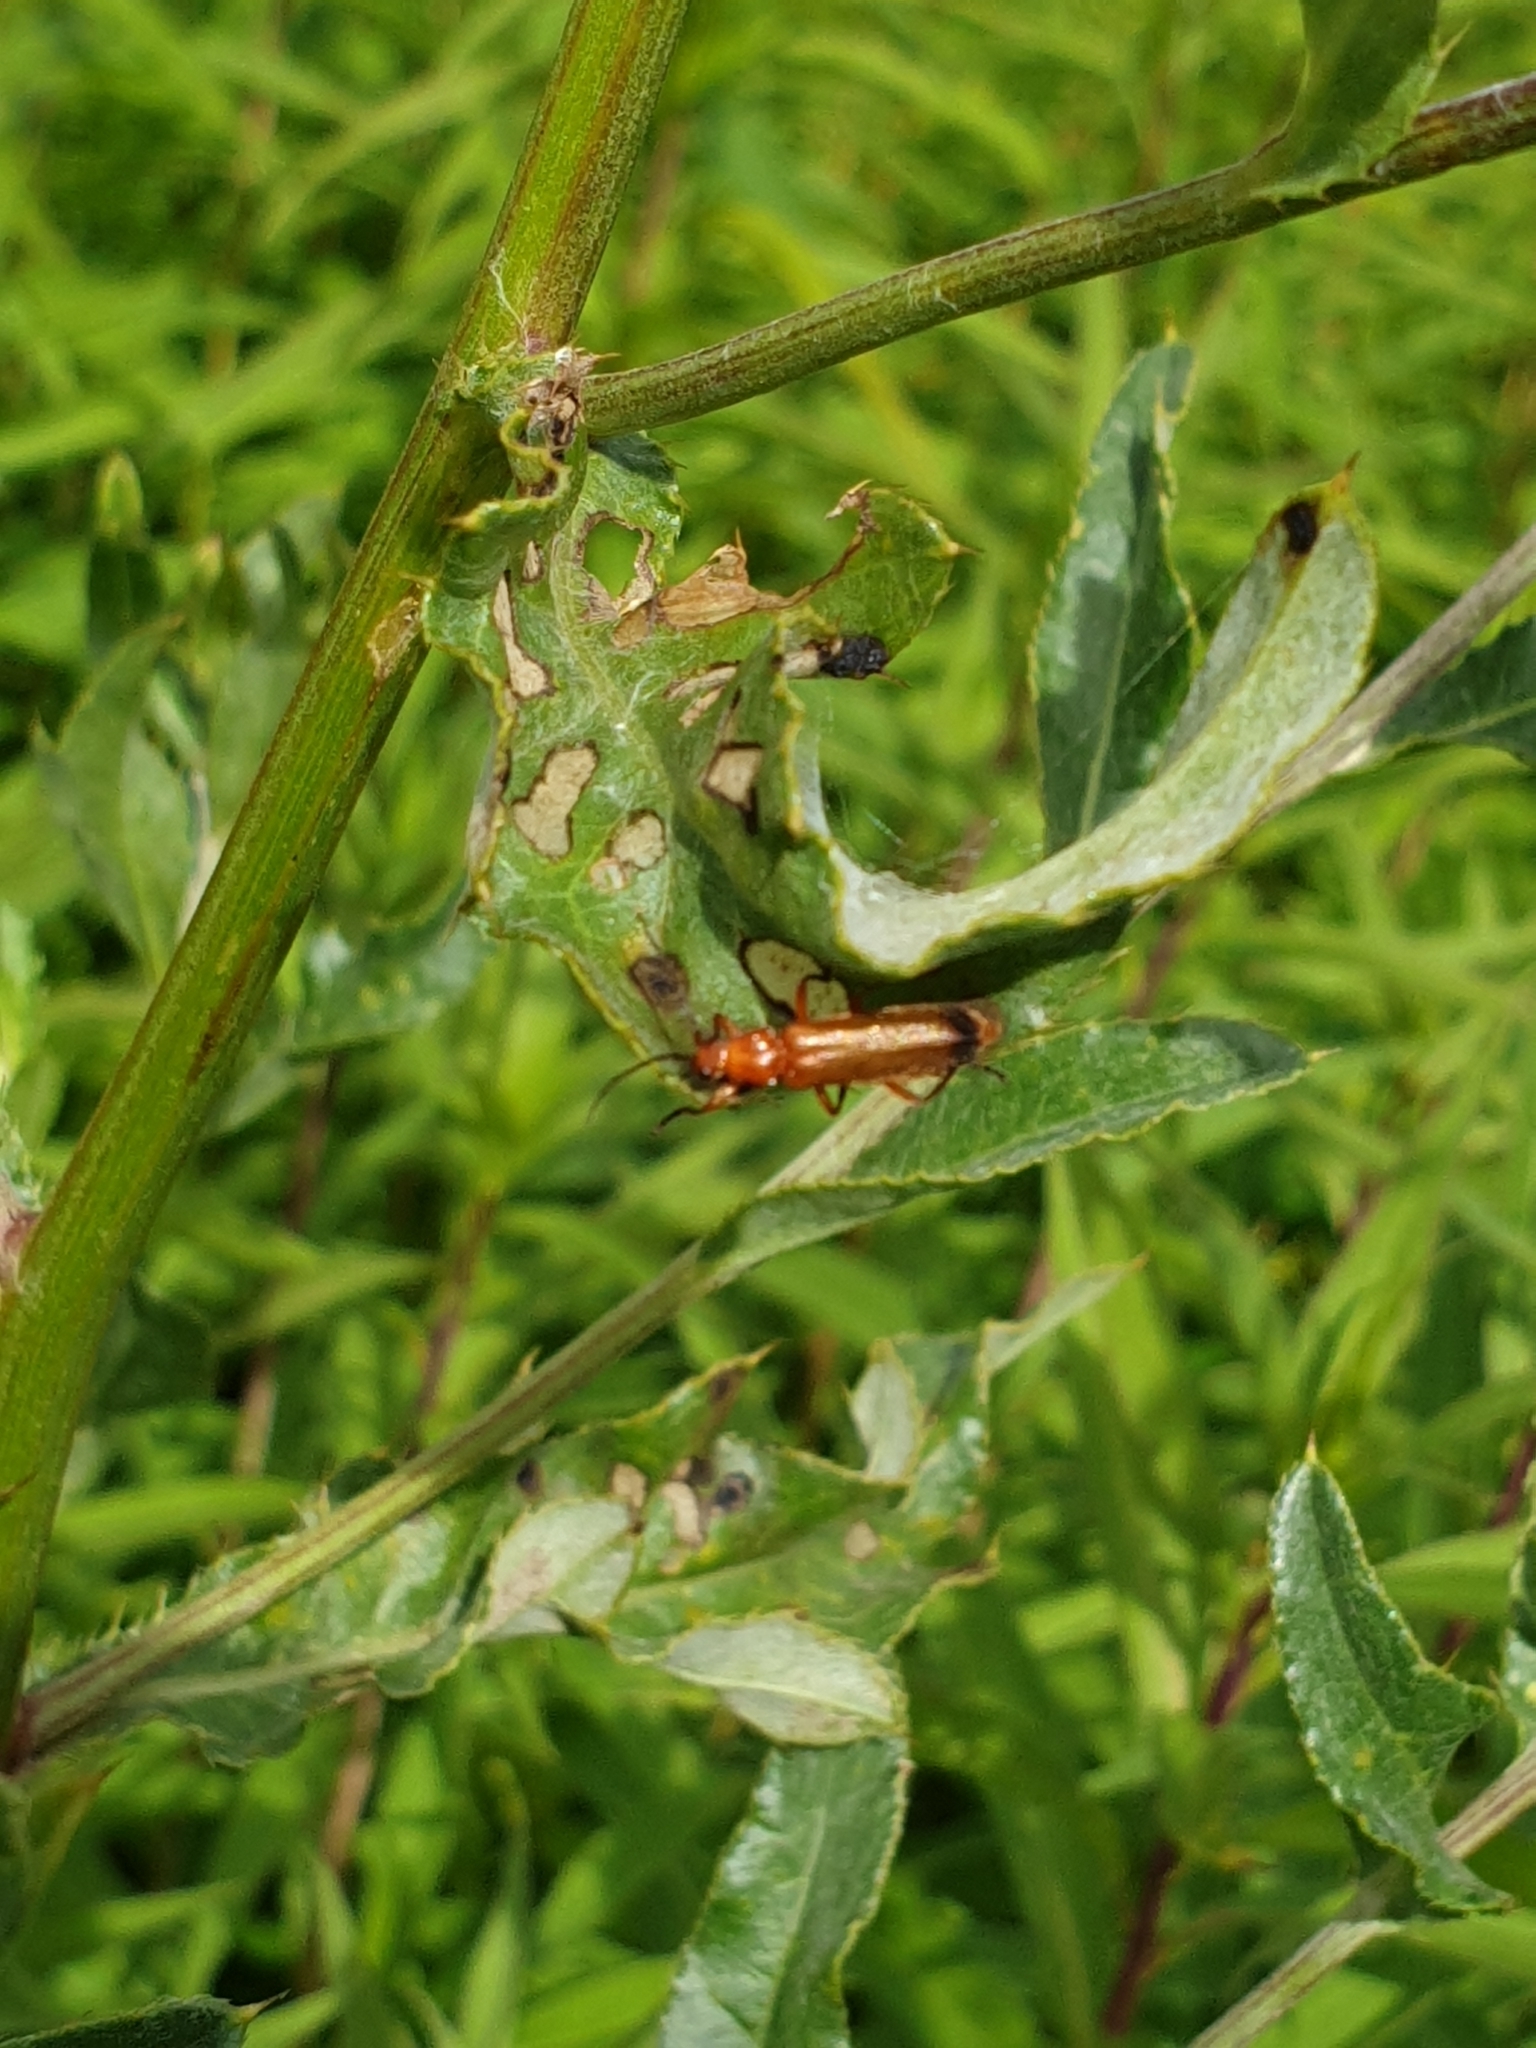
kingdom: Animalia
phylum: Arthropoda
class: Insecta
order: Coleoptera
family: Cantharidae
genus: Rhagonycha
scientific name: Rhagonycha fulva
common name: Common red soldier beetle
